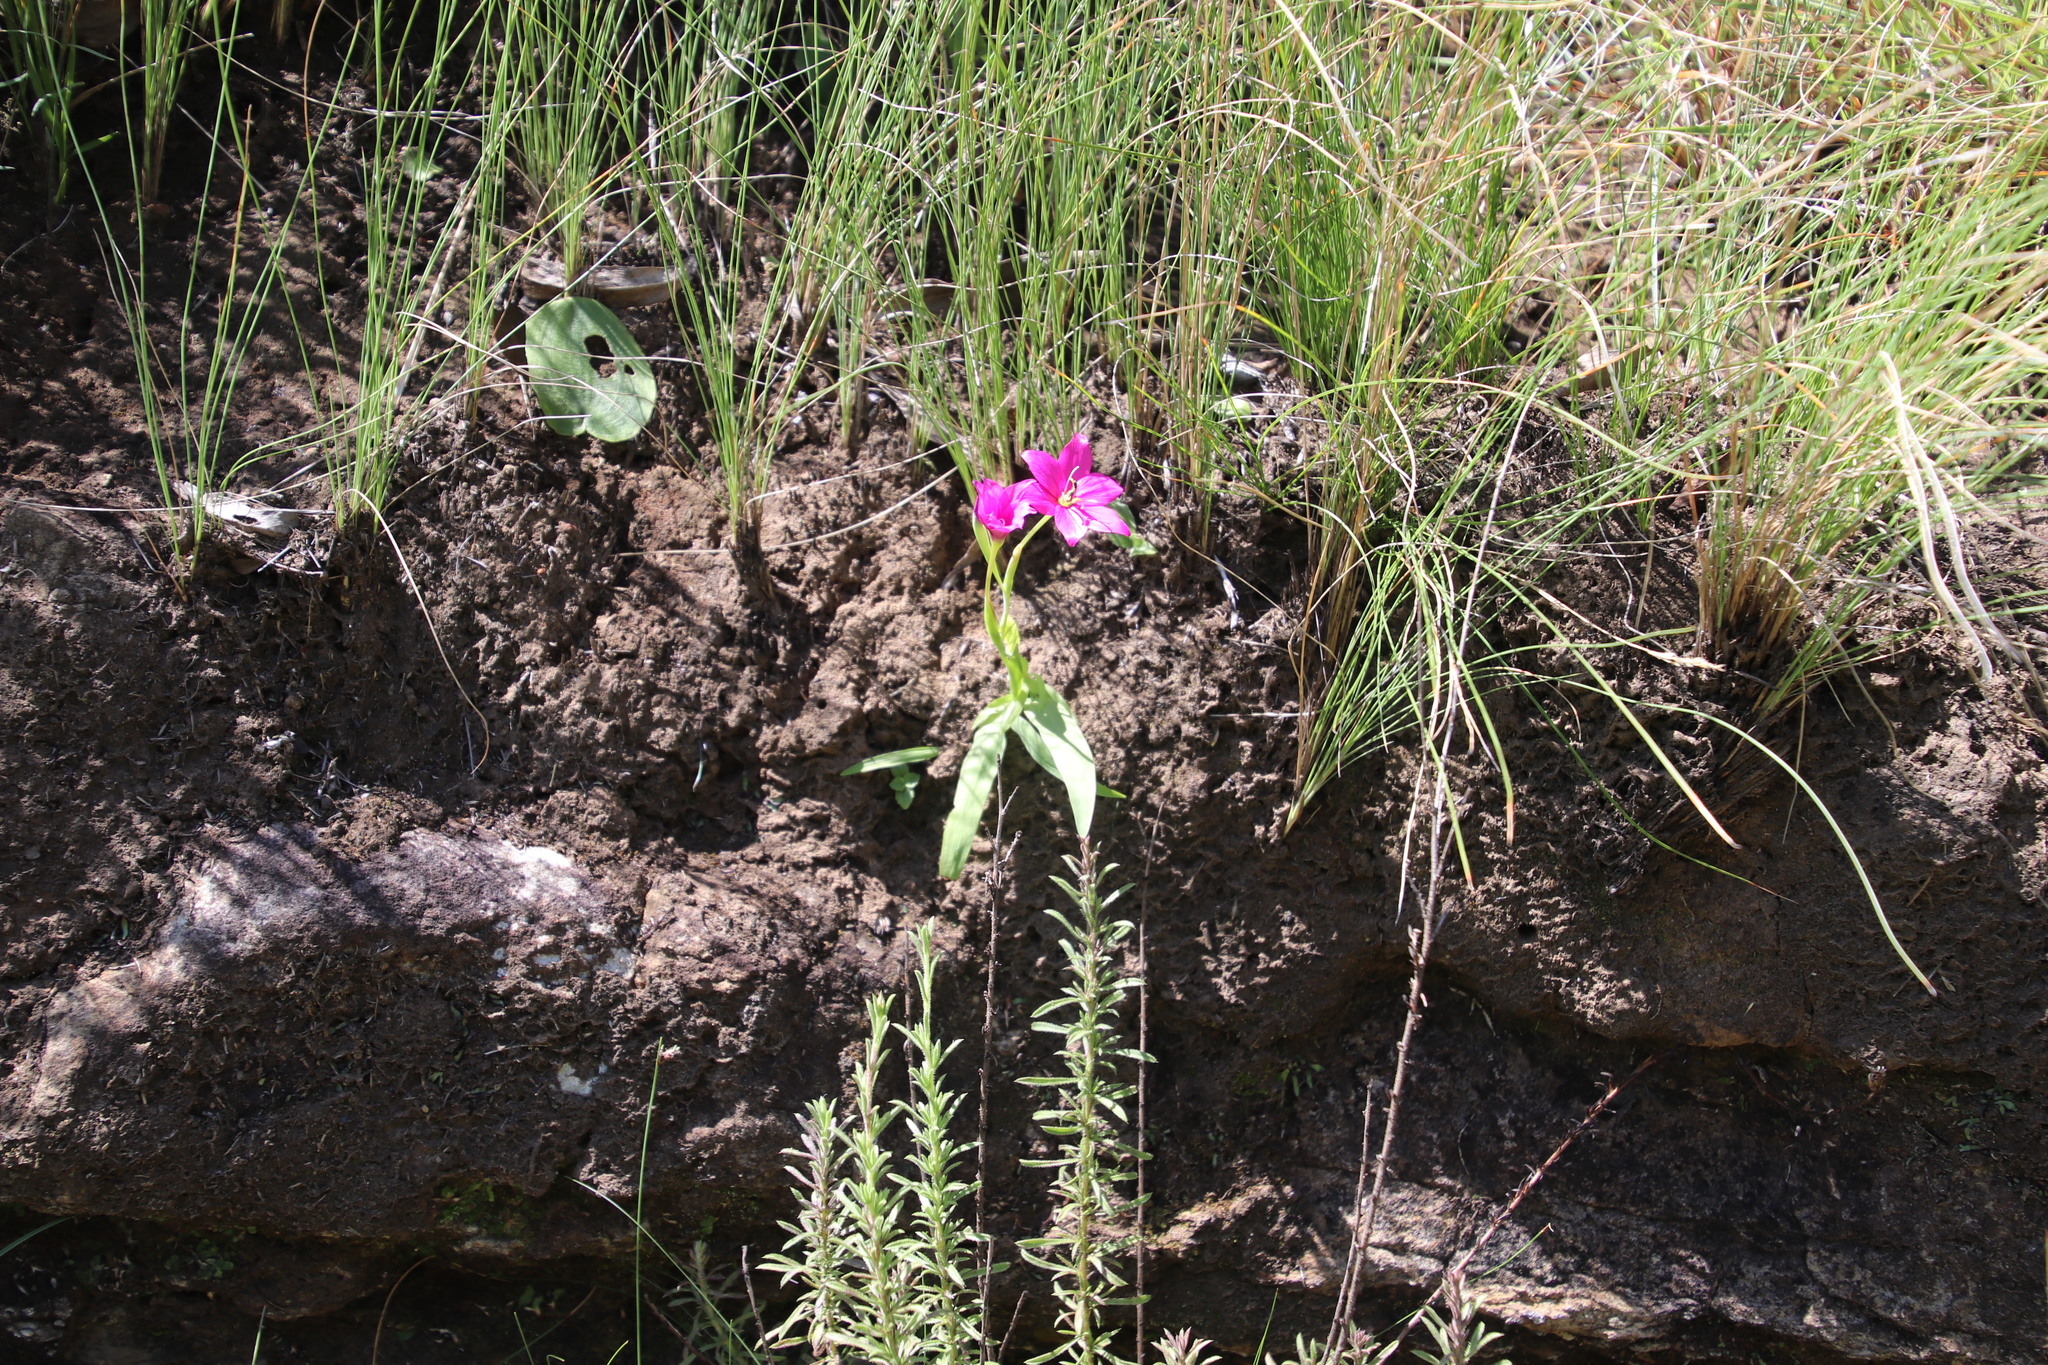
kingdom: Plantae
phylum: Tracheophyta
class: Liliopsida
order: Asparagales
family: Iridaceae
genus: Hesperantha
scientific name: Hesperantha scopulosa
